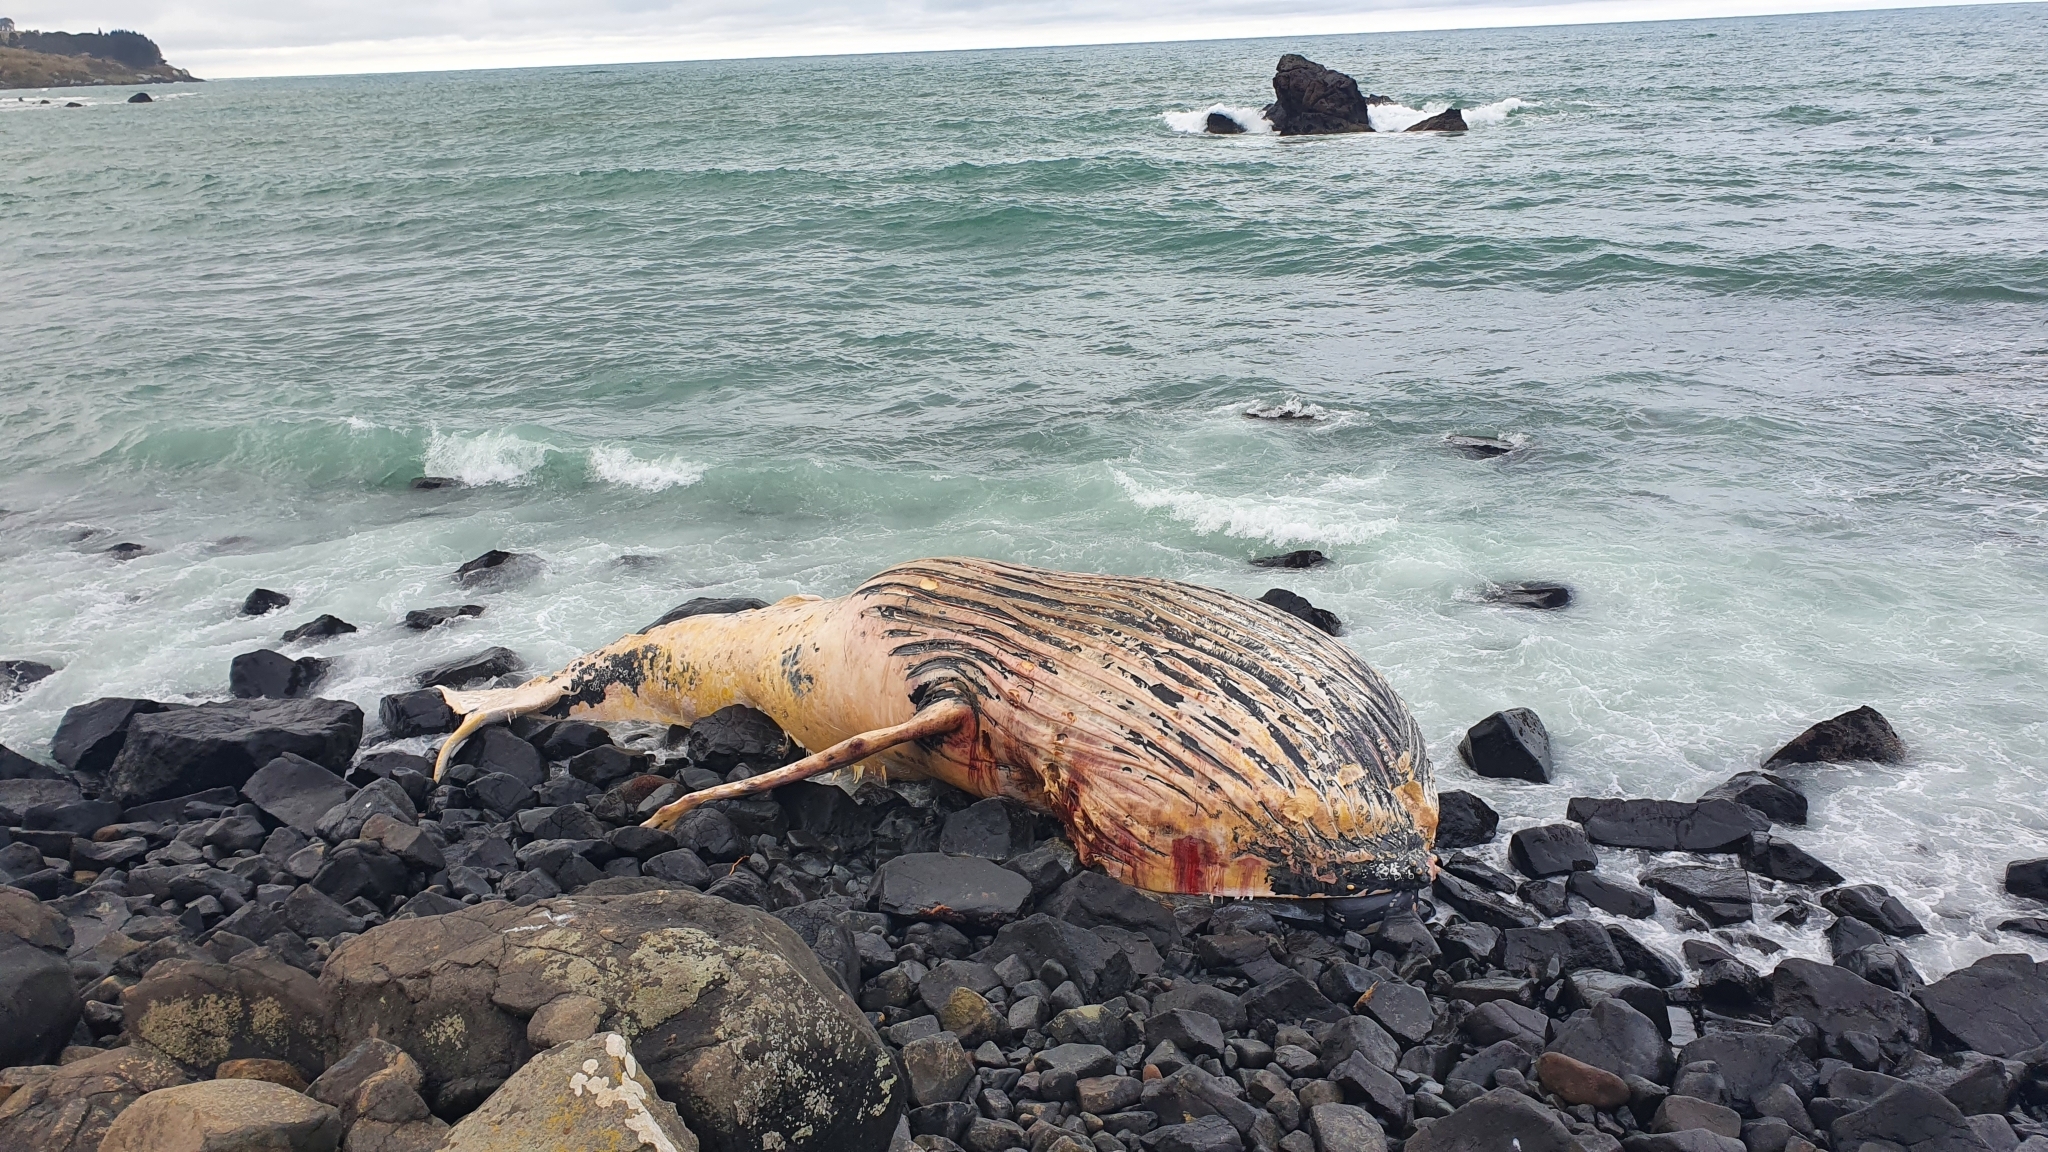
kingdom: Animalia
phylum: Chordata
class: Mammalia
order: Cetacea
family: Balaenopteridae
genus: Megaptera
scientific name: Megaptera novaeangliae
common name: Humpback whale
